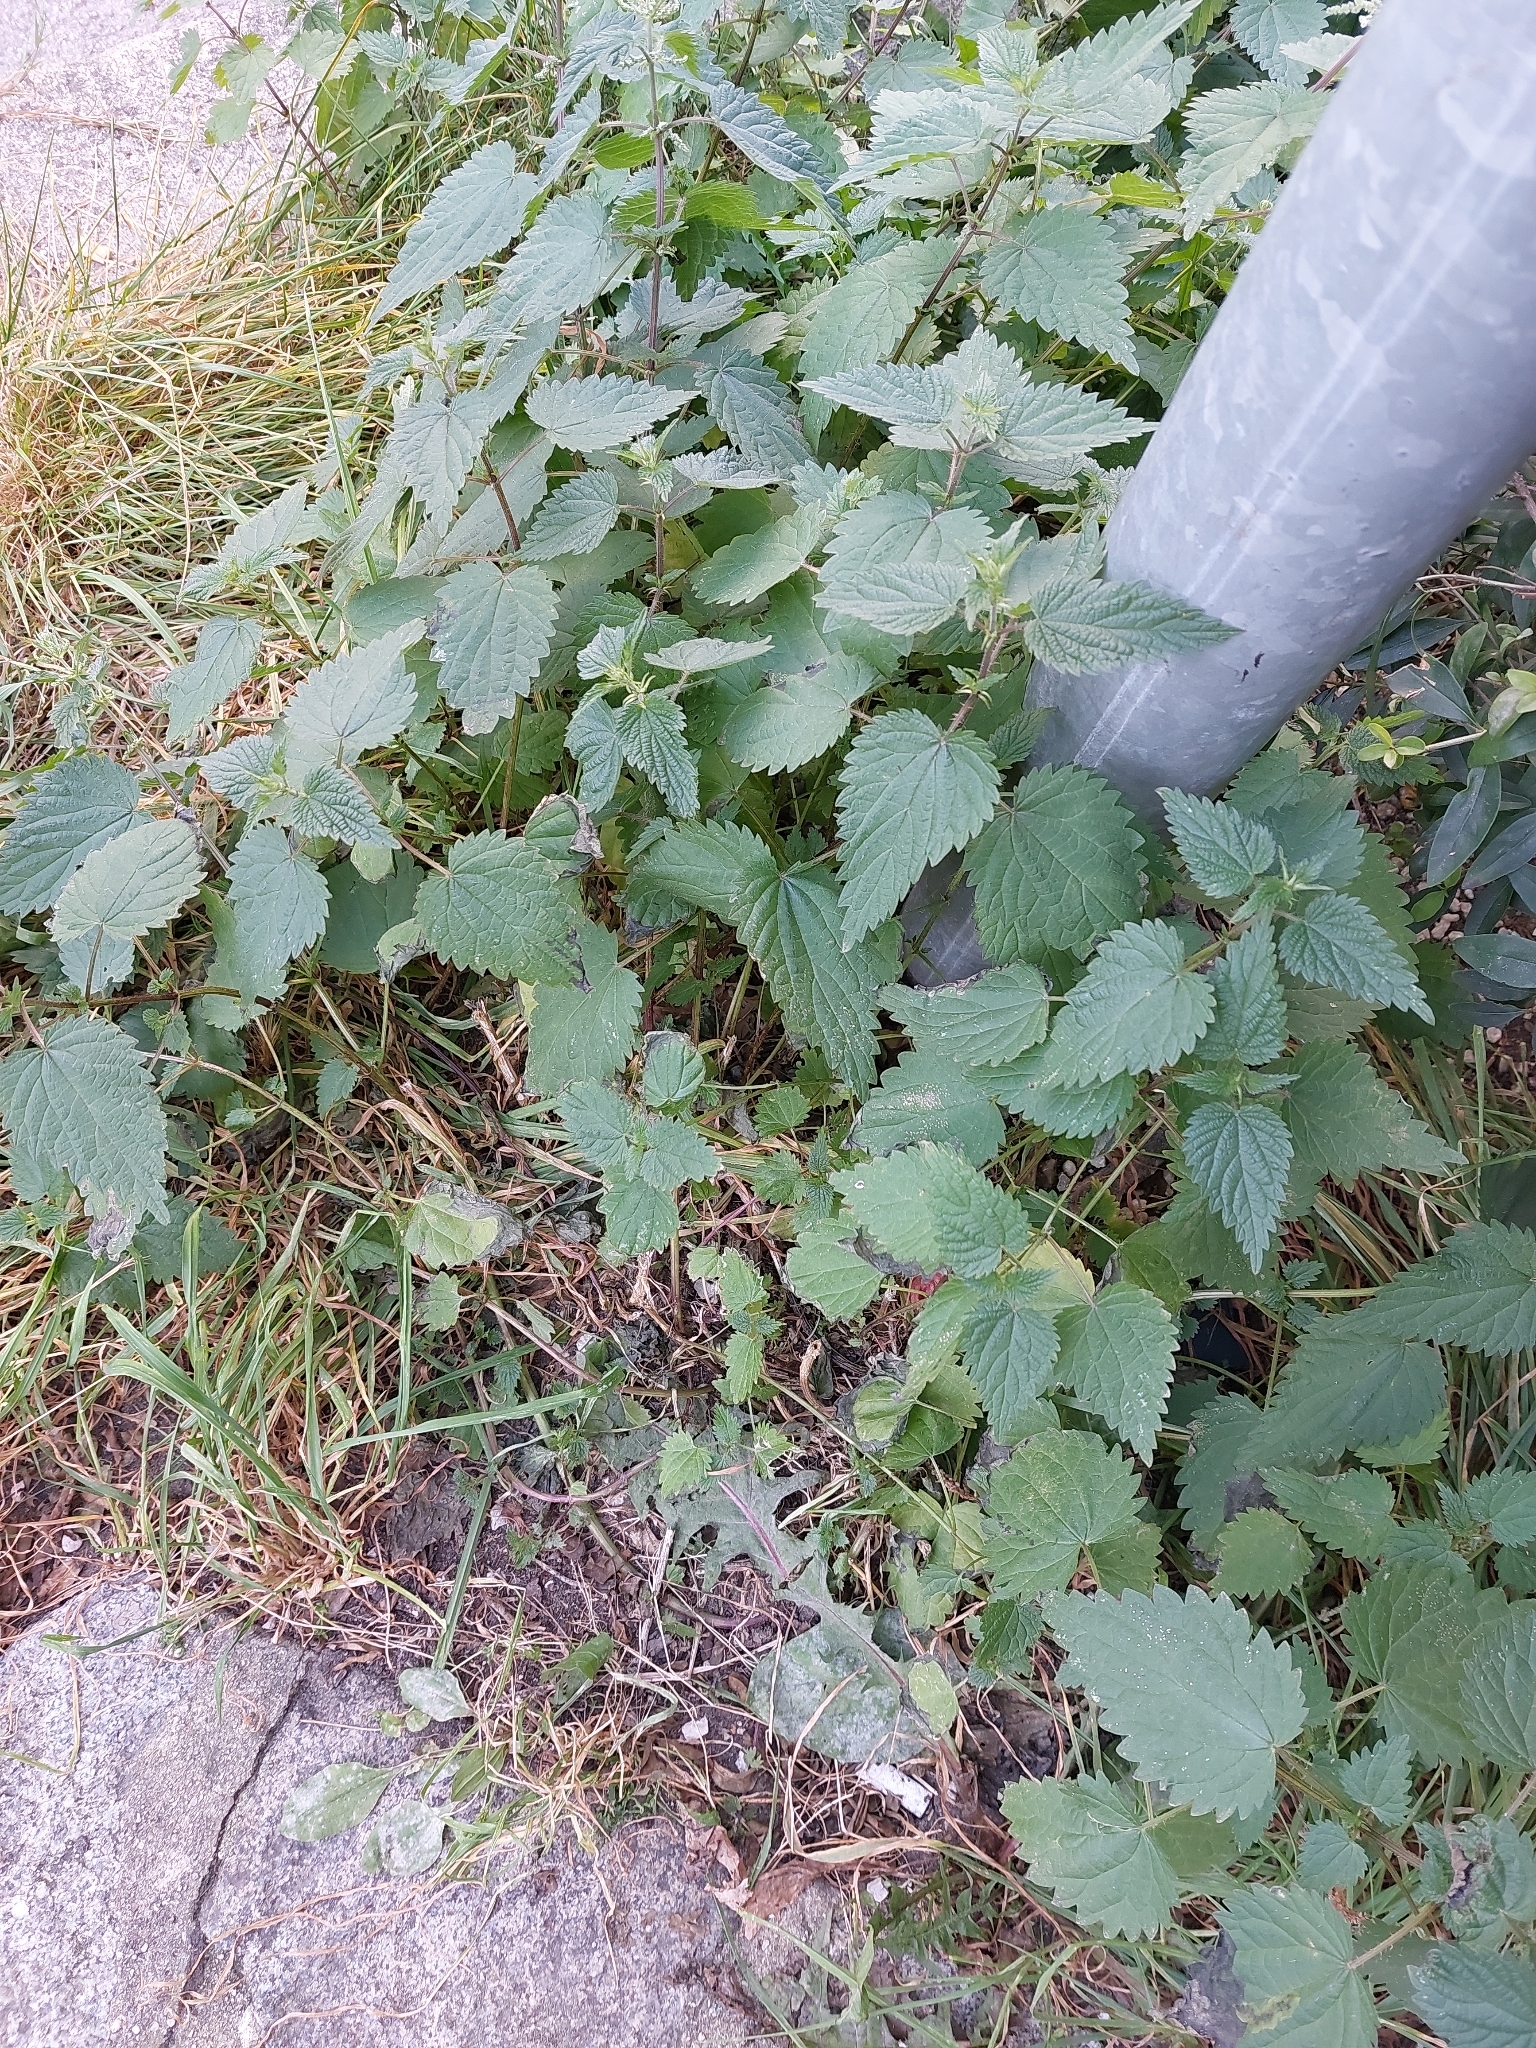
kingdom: Plantae
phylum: Tracheophyta
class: Magnoliopsida
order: Rosales
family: Urticaceae
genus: Urtica
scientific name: Urtica dioica
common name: Common nettle
